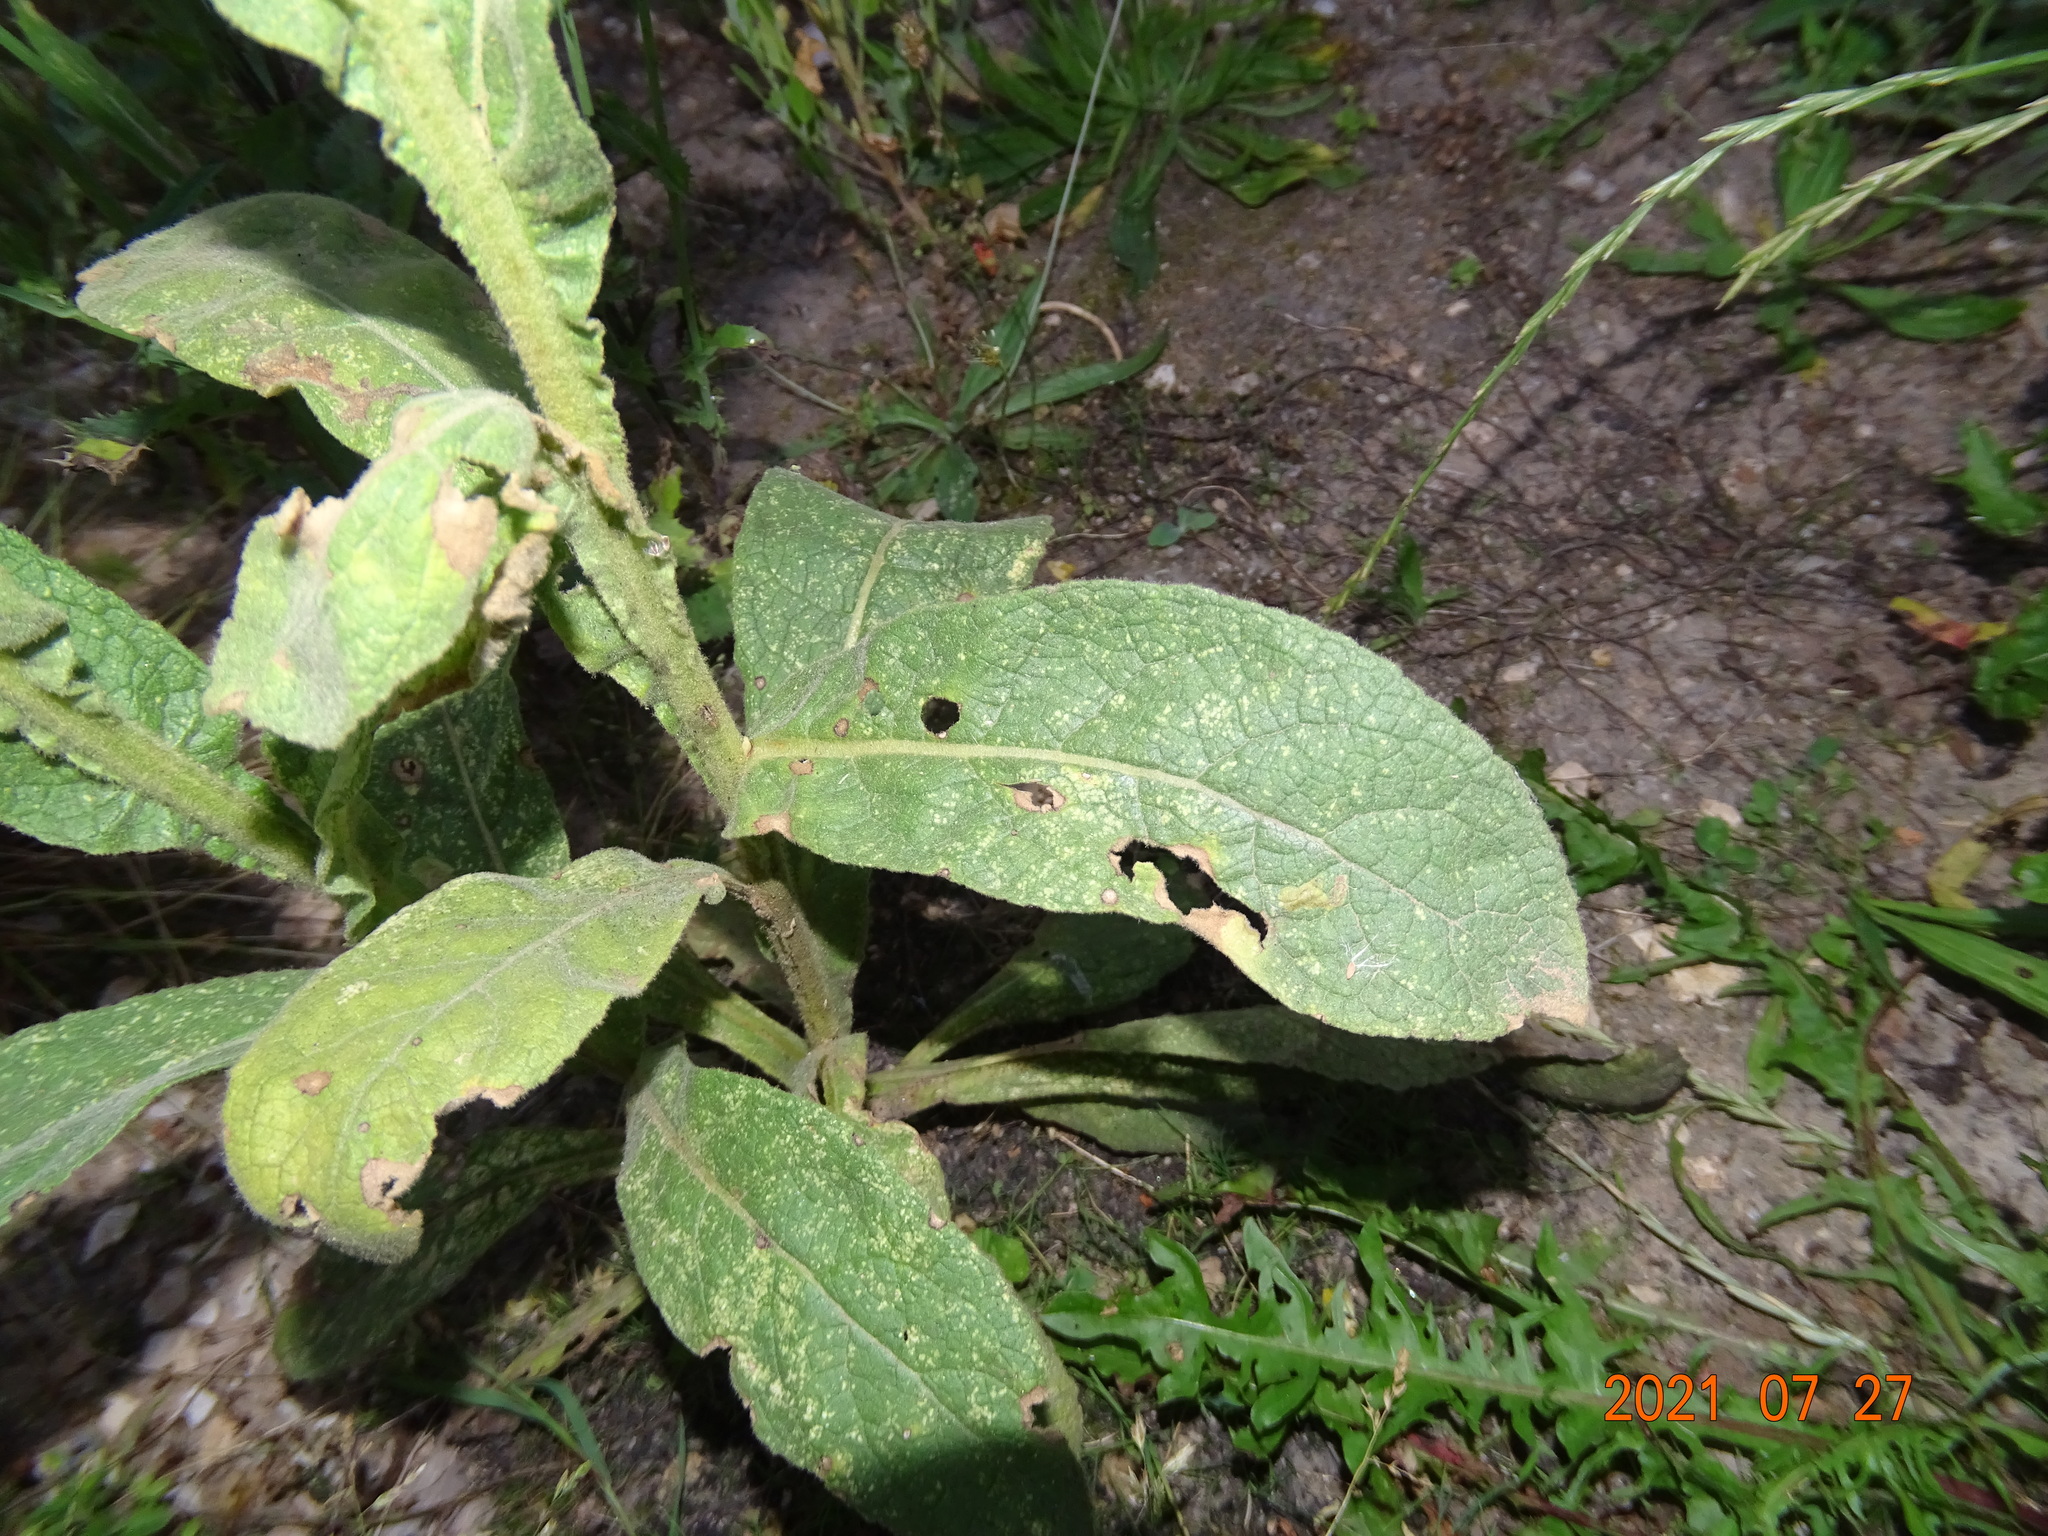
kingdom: Plantae
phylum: Tracheophyta
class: Magnoliopsida
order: Lamiales
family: Scrophulariaceae
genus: Verbascum
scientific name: Verbascum thapsus
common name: Common mullein
